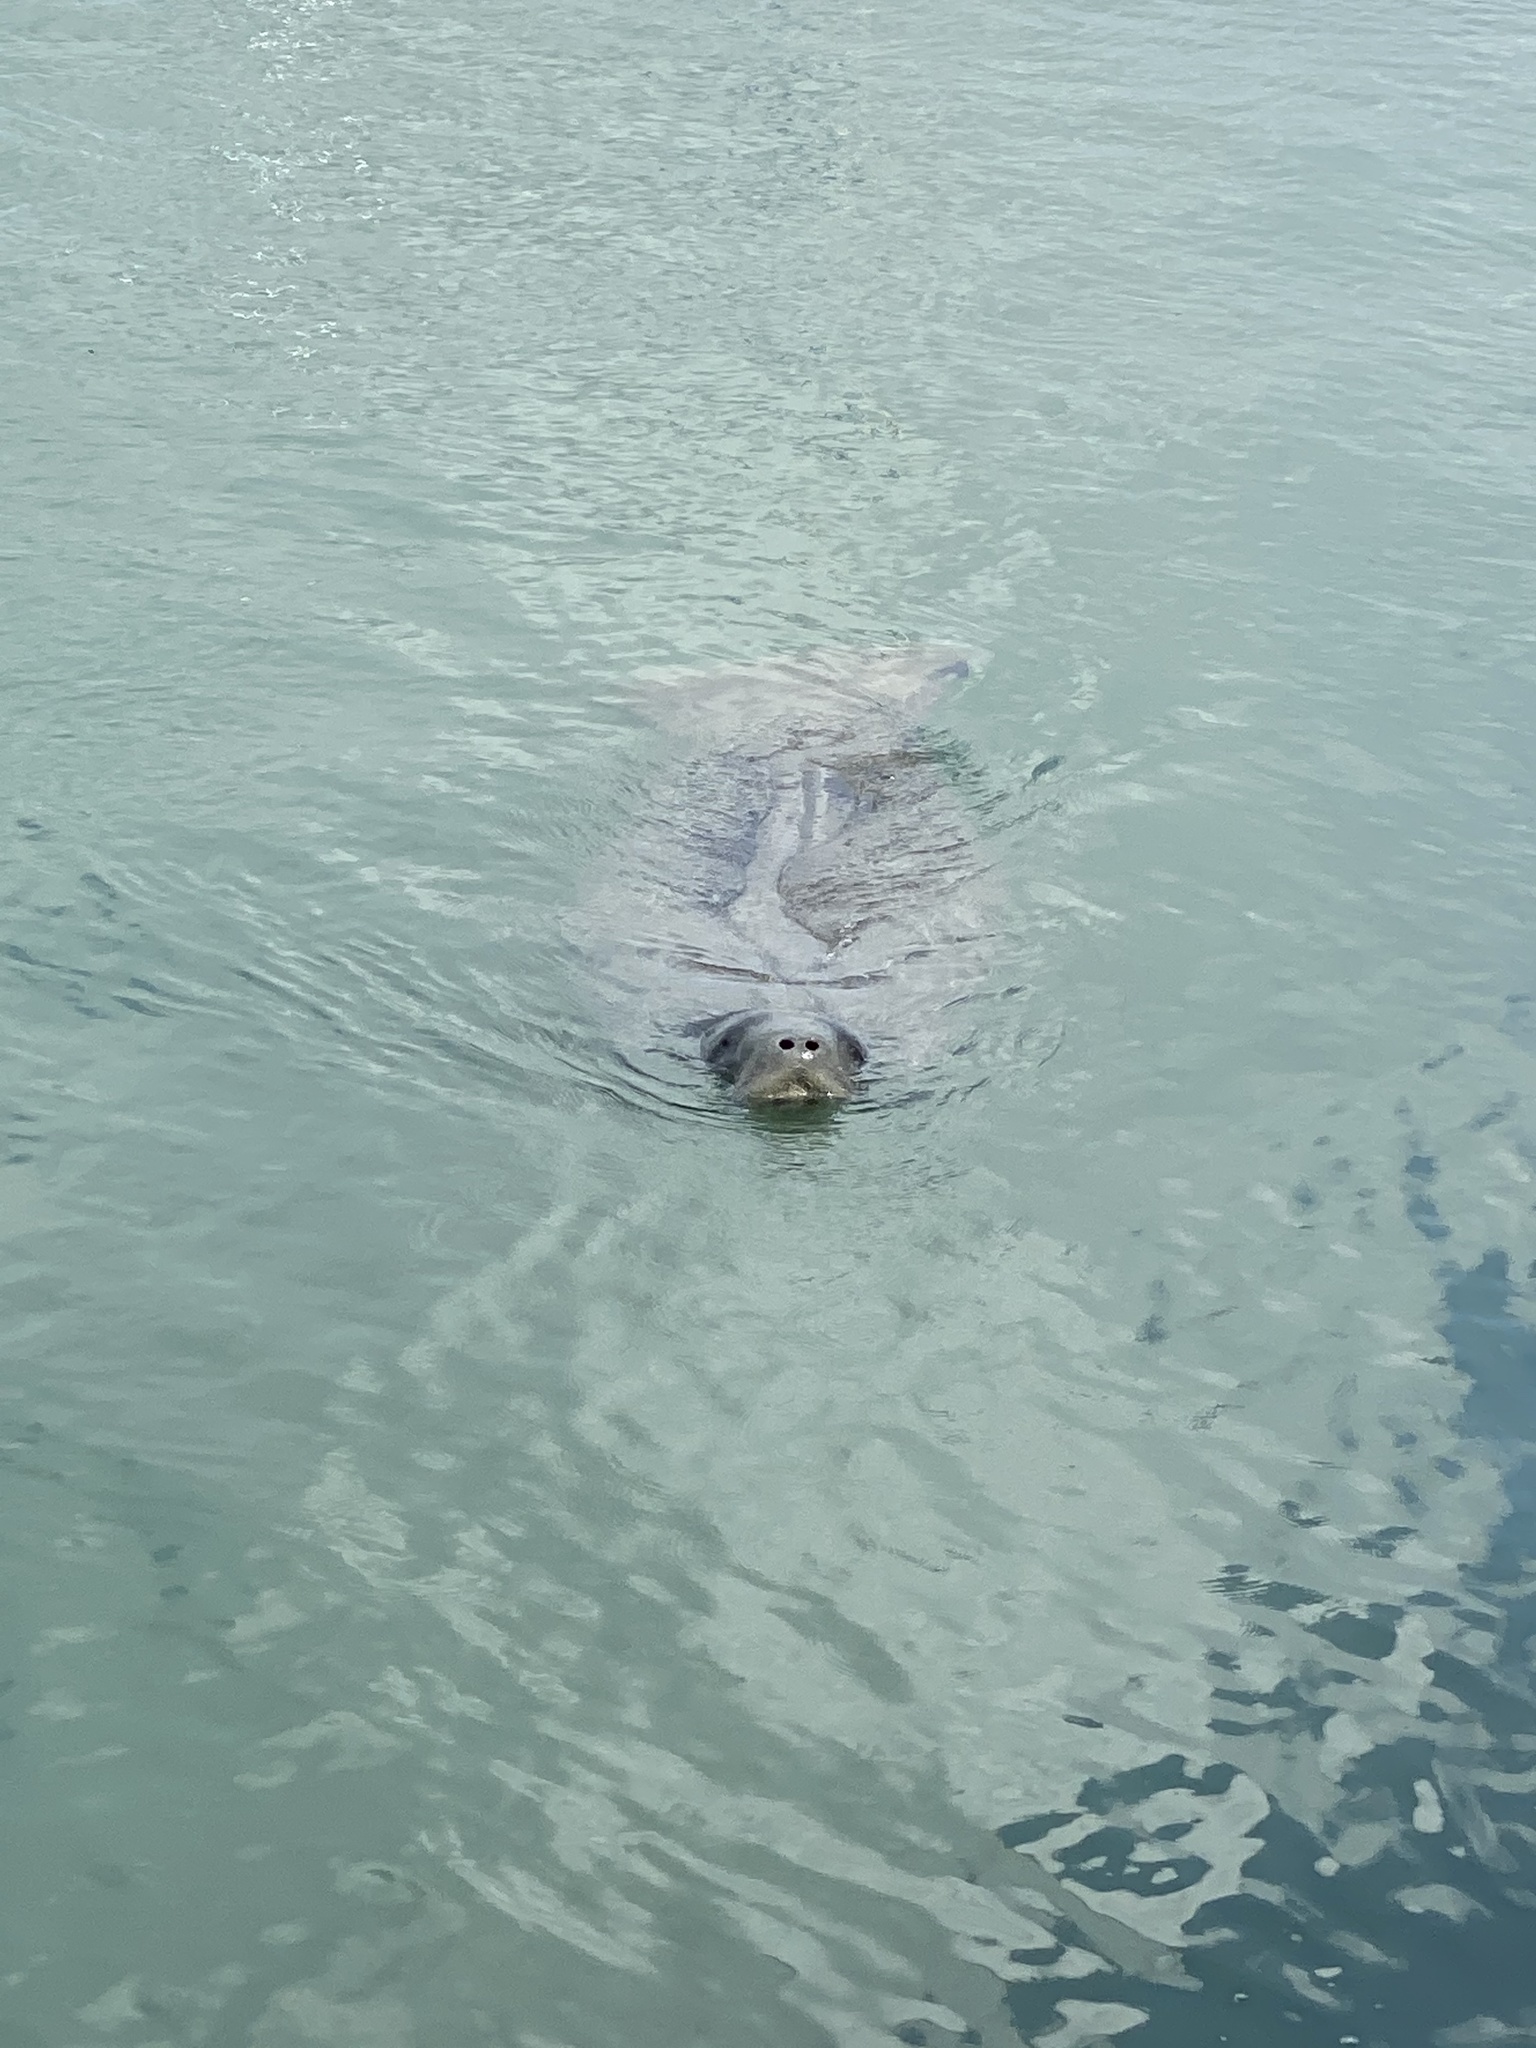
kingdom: Animalia
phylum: Chordata
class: Mammalia
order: Sirenia
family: Trichechidae
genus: Trichechus
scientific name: Trichechus manatus
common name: West indian manatee
